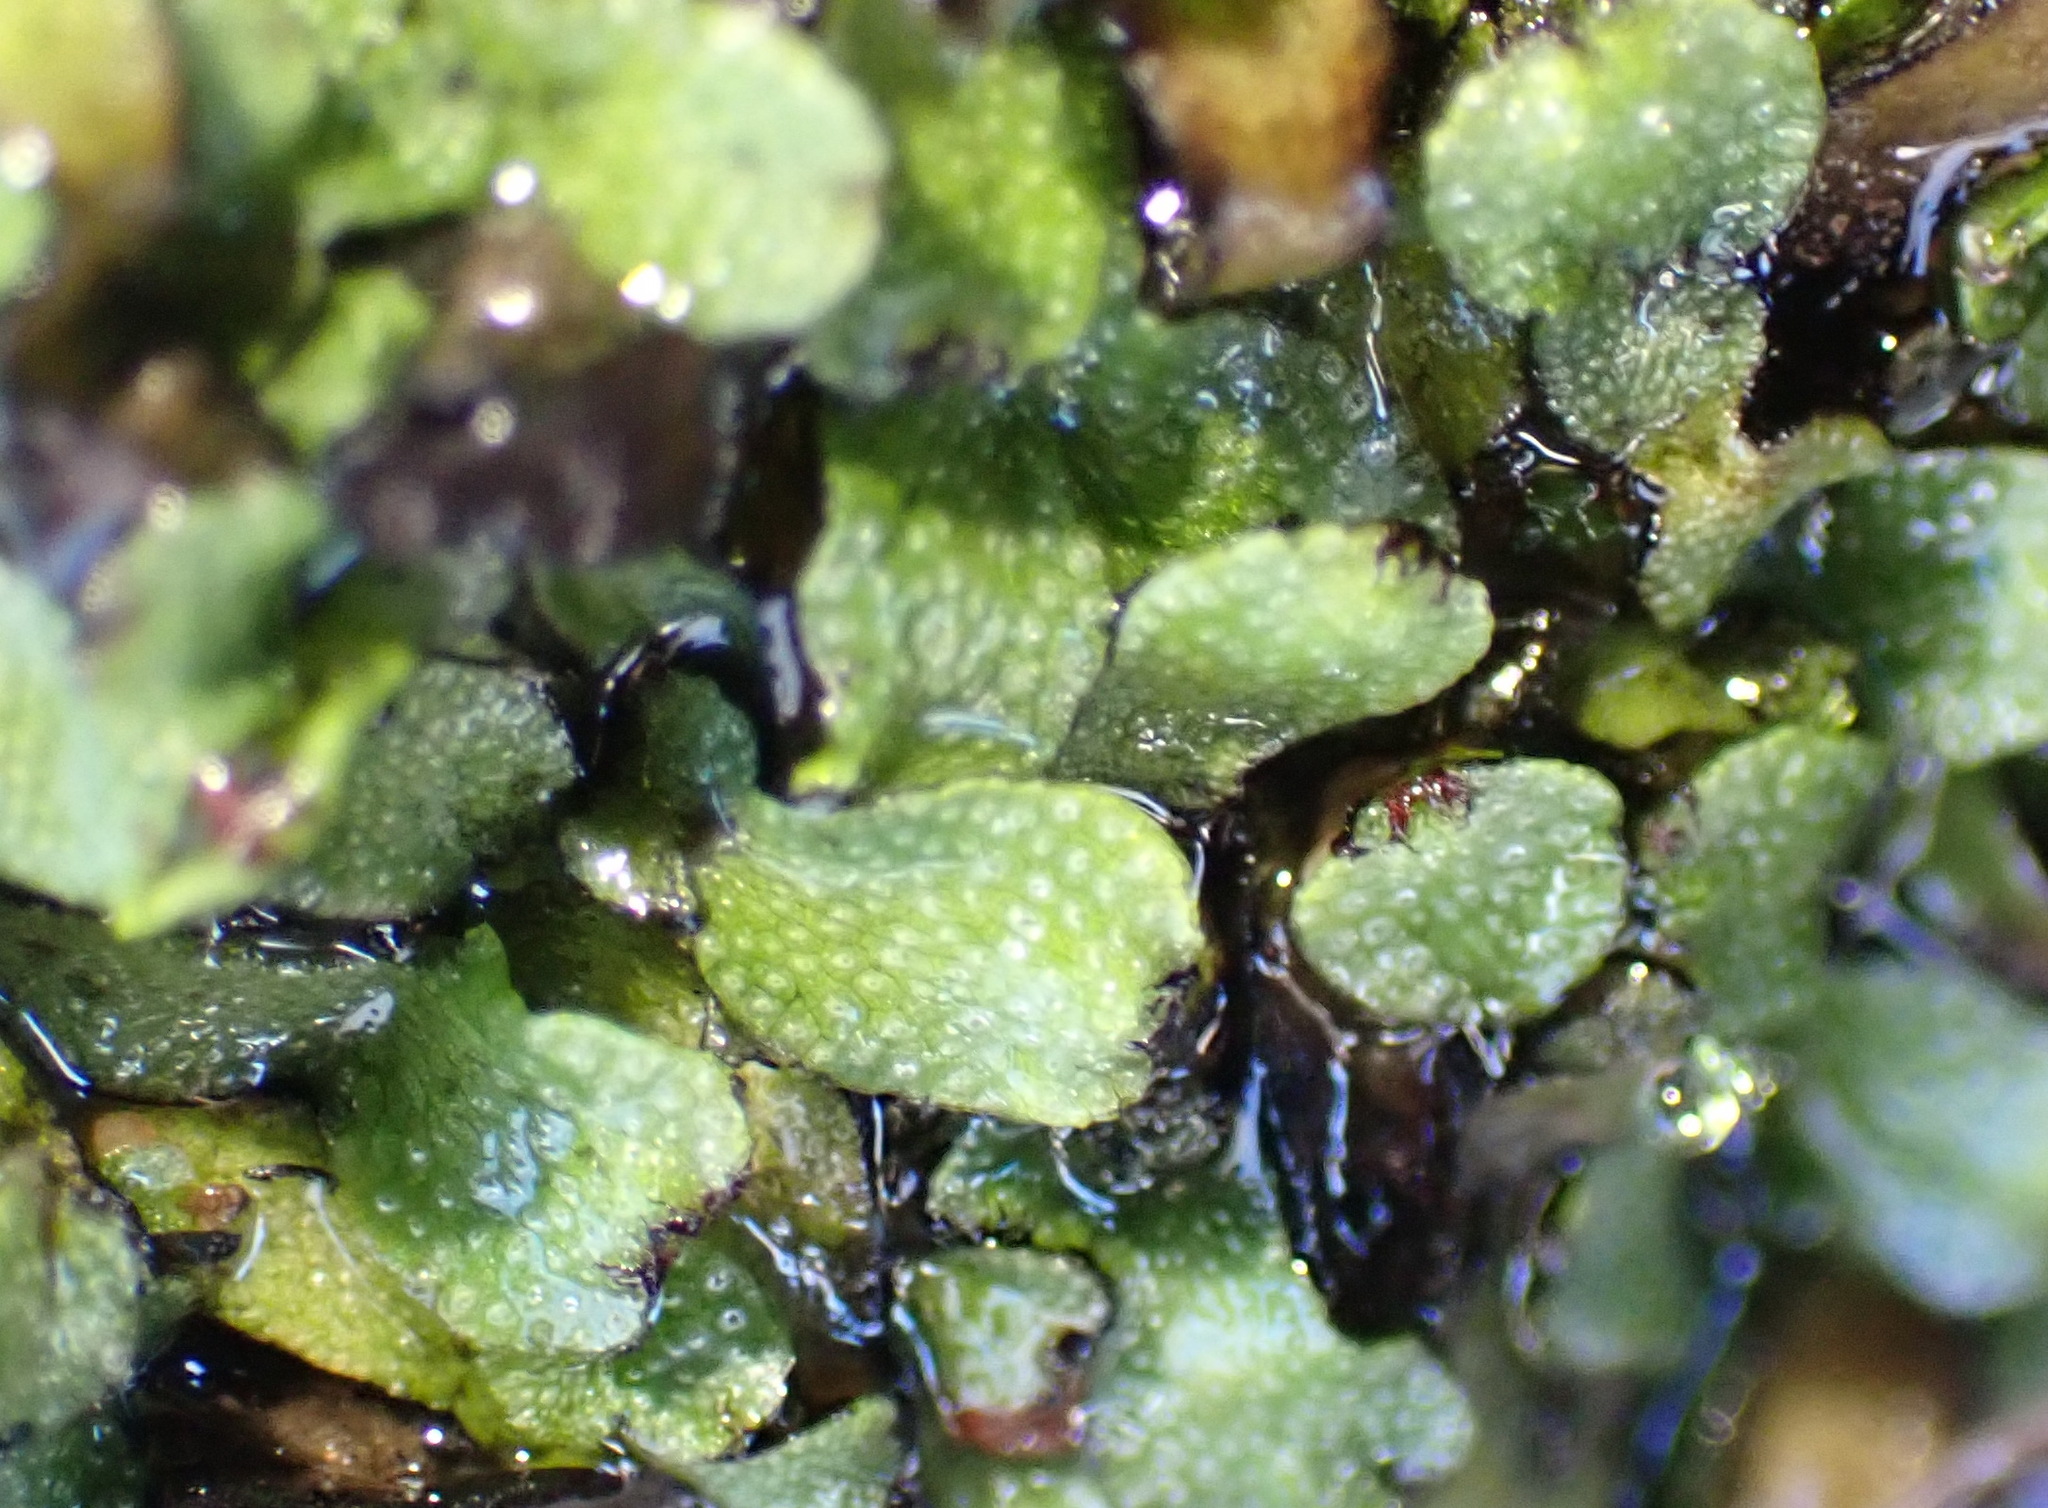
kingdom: Plantae
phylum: Marchantiophyta
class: Marchantiopsida
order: Marchantiales
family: Targioniaceae
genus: Targionia
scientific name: Targionia hypophylla
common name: Orobus-seed liverwort
